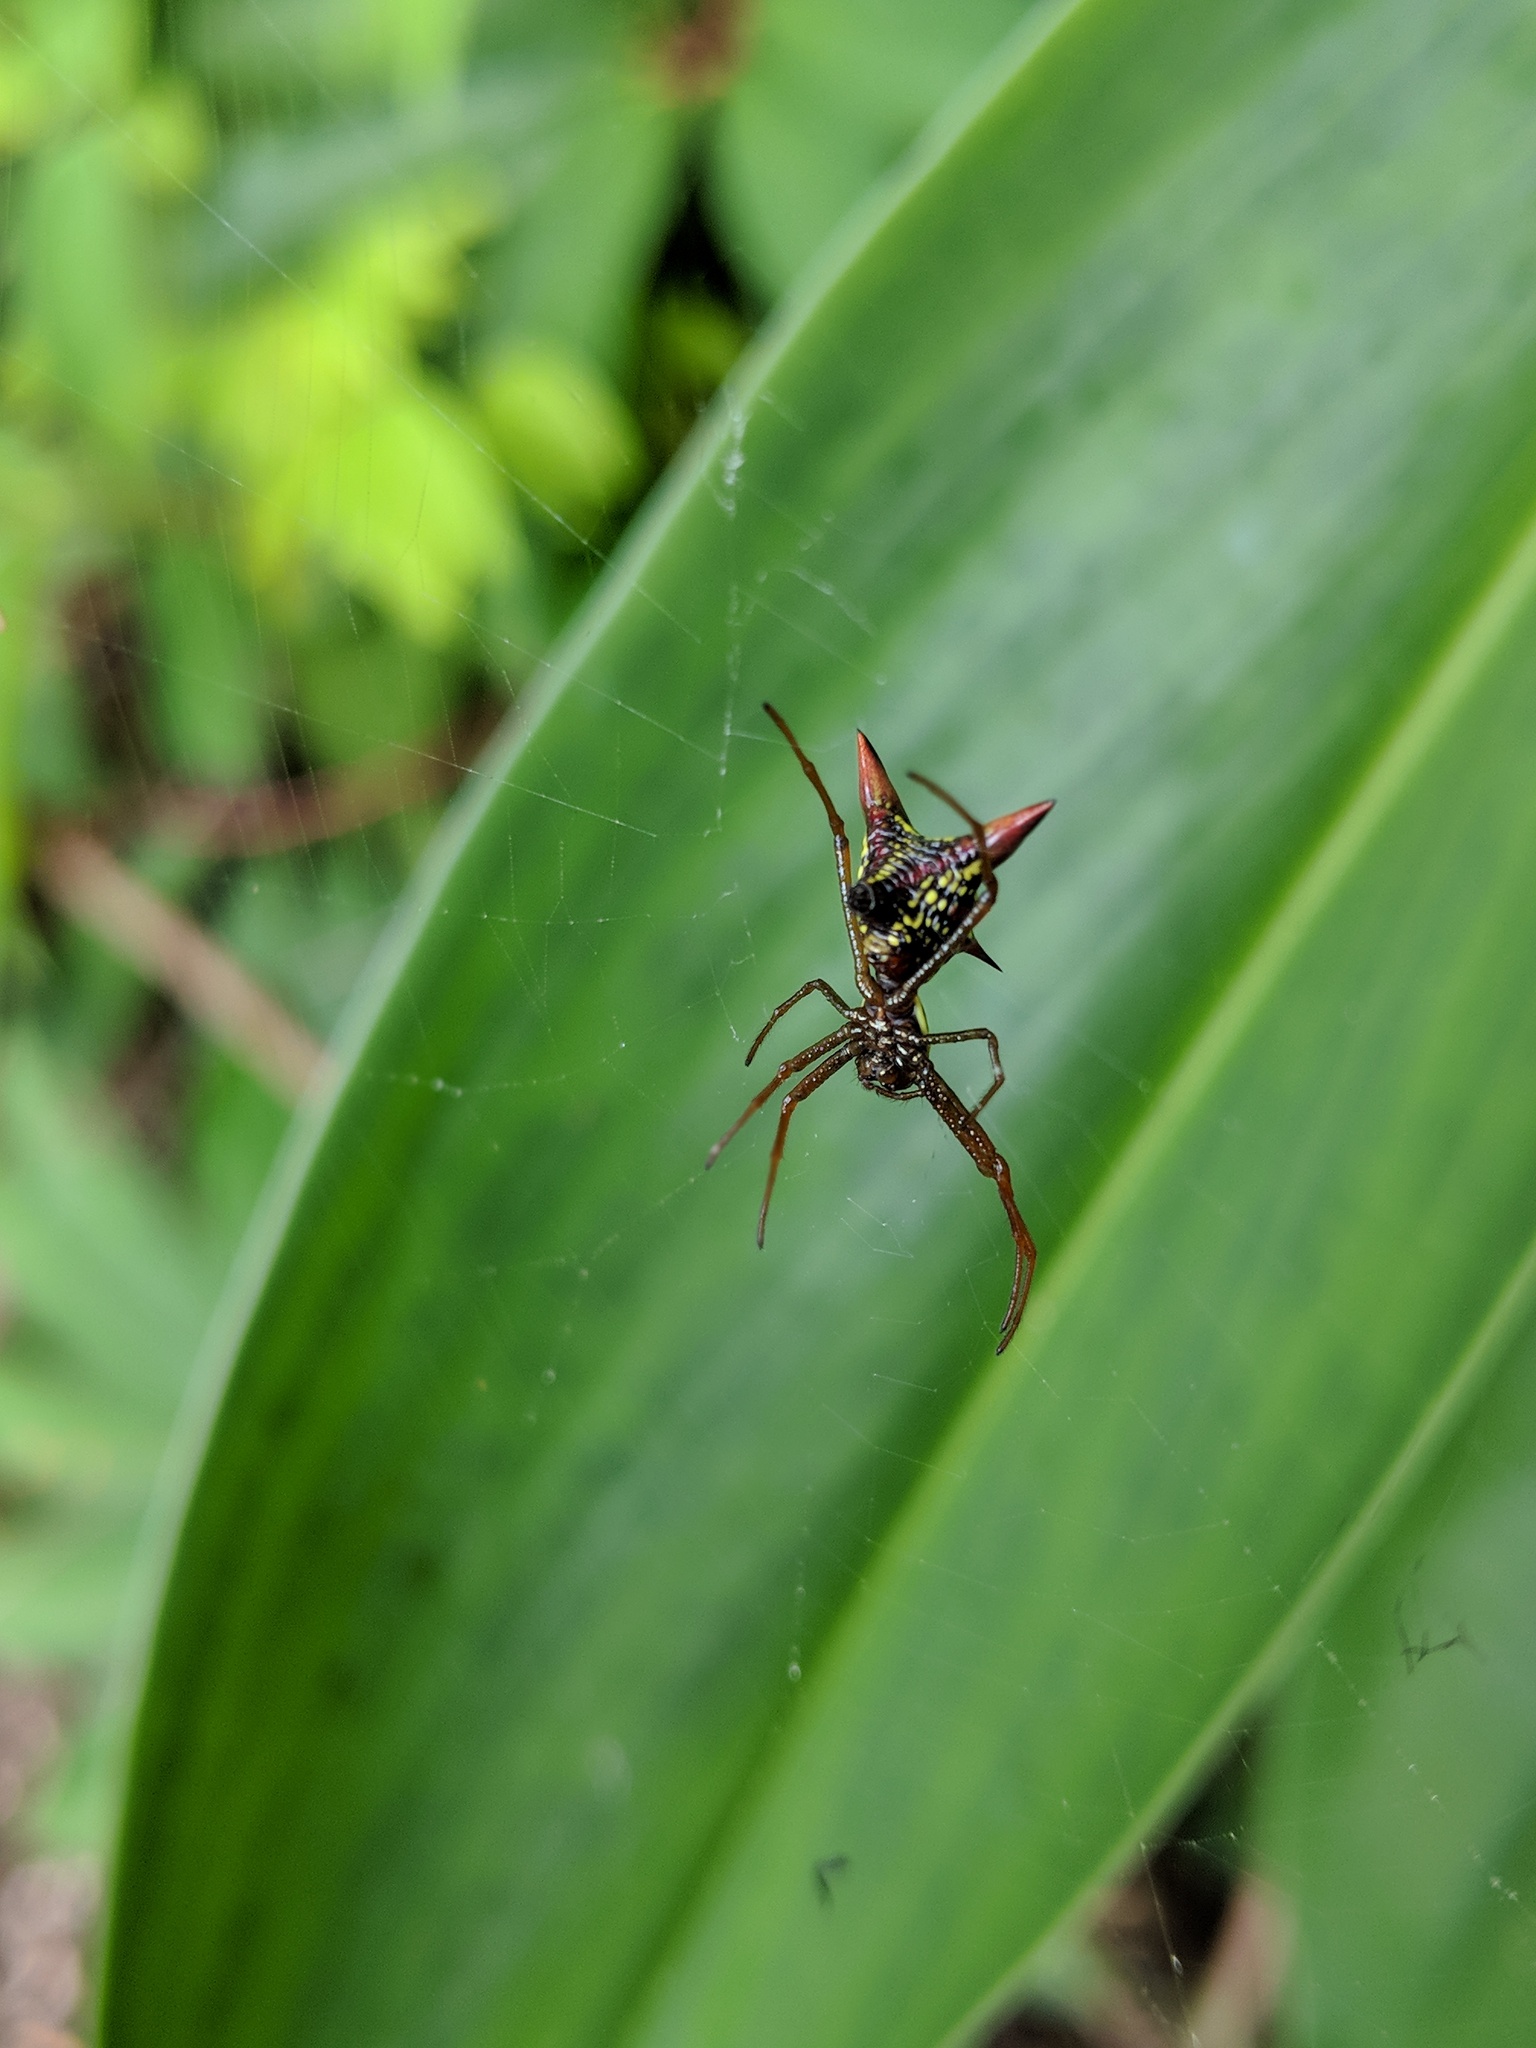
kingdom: Animalia
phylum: Arthropoda
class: Arachnida
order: Araneae
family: Araneidae
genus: Micrathena
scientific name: Micrathena sagittata
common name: Orb weavers
